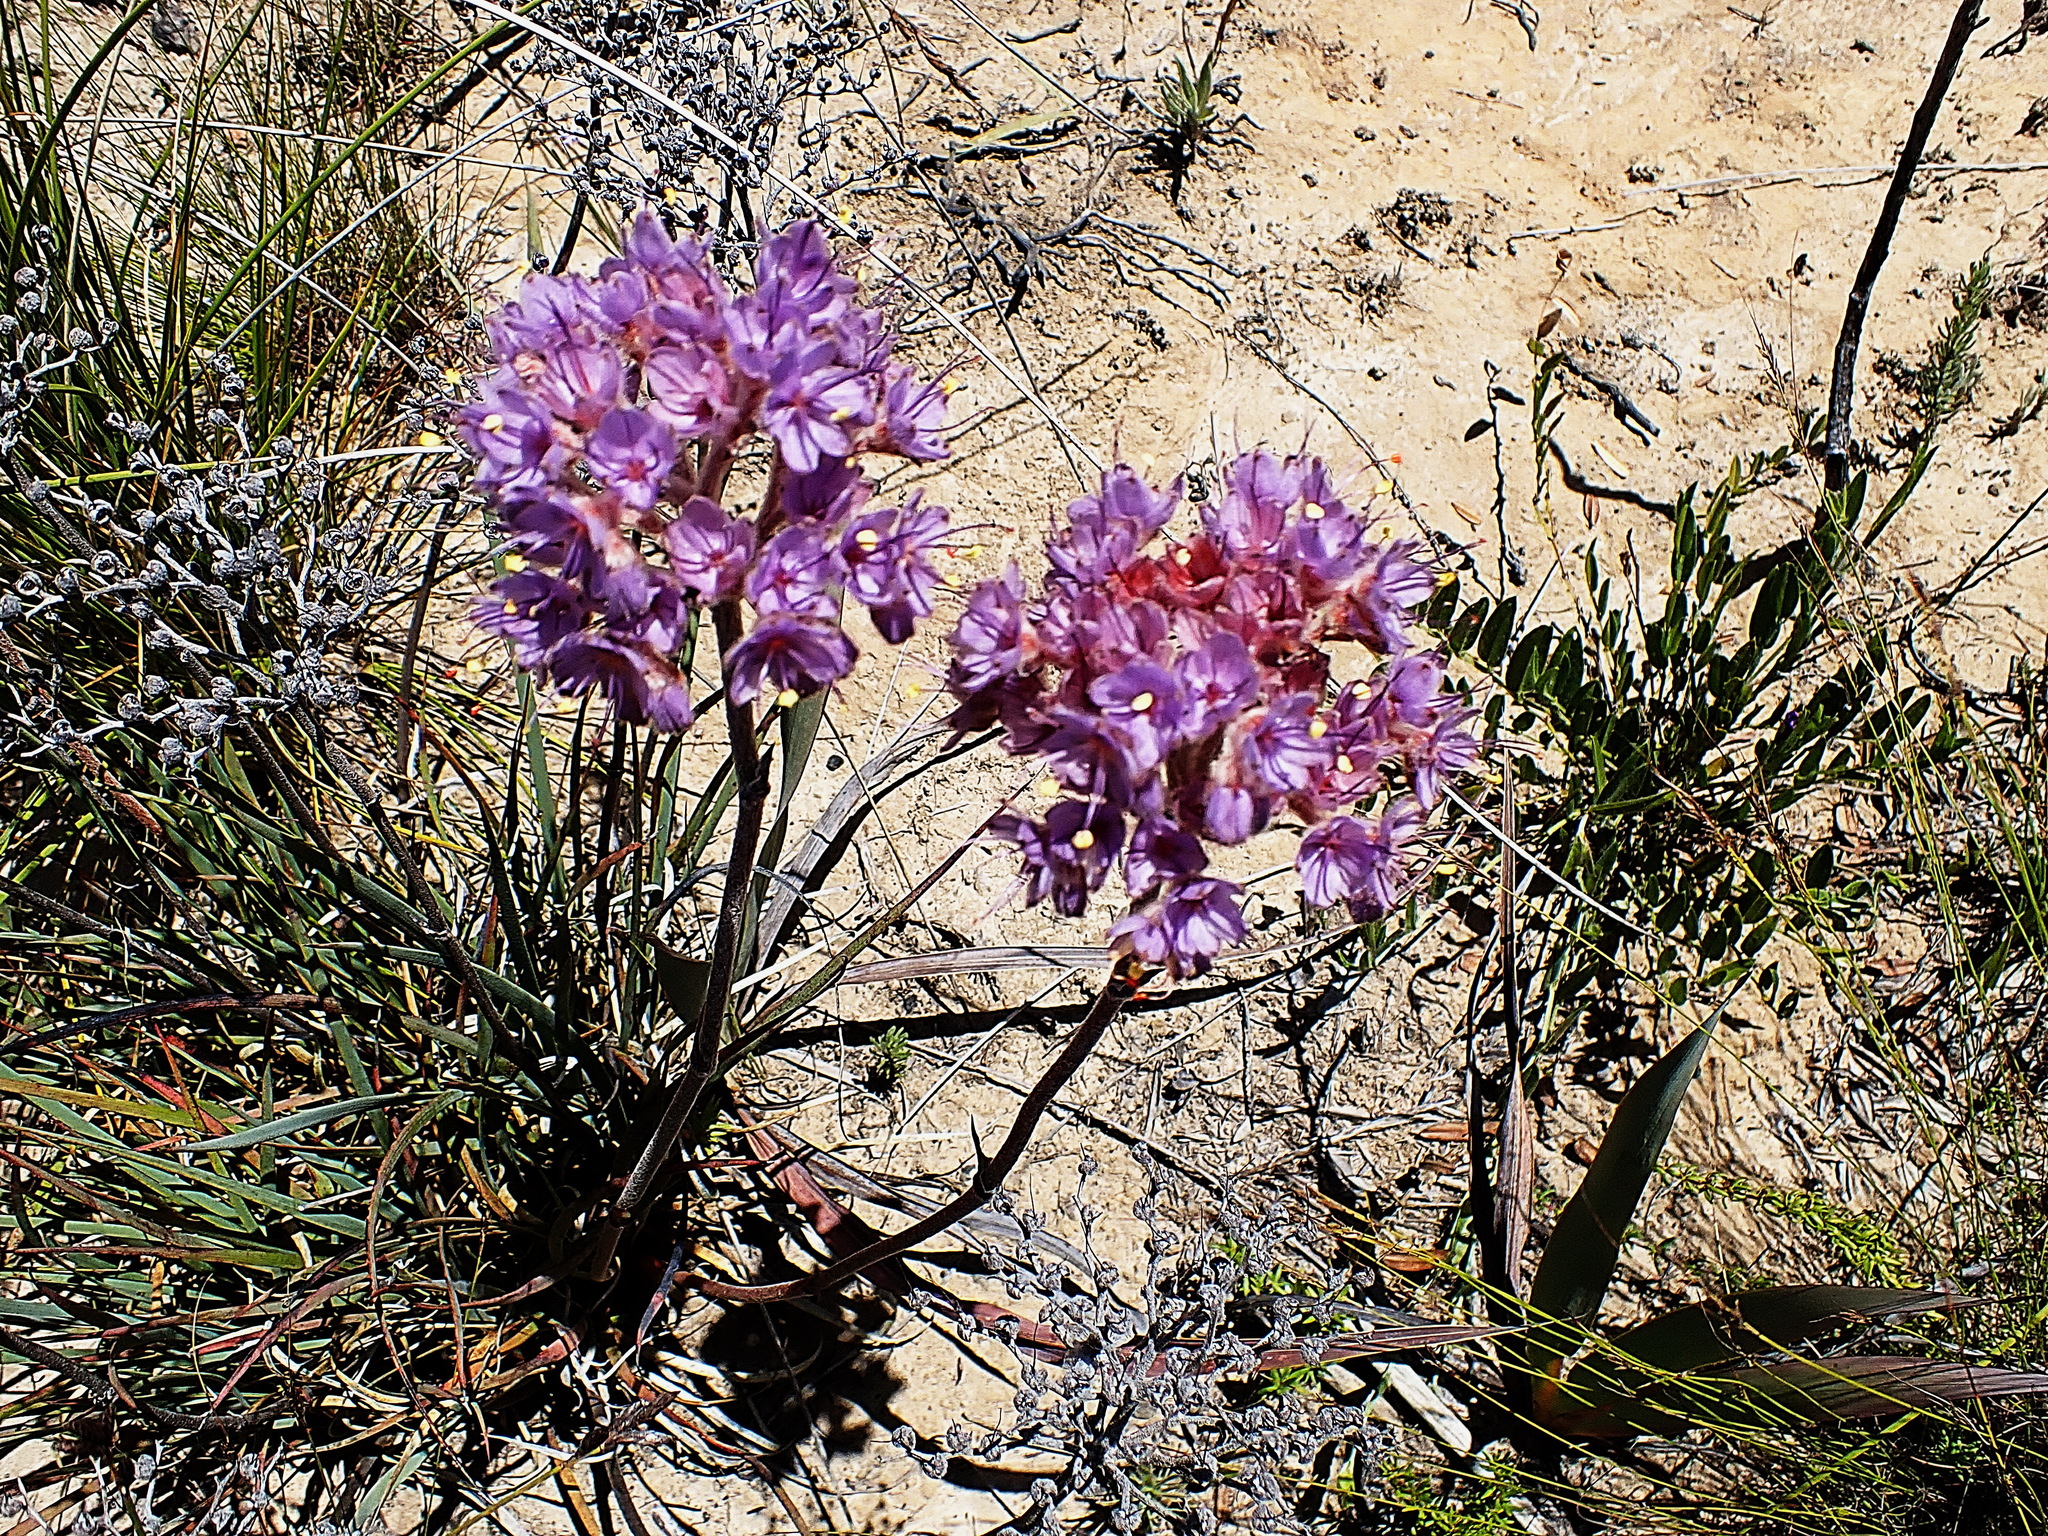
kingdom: Plantae
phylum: Tracheophyta
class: Liliopsida
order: Commelinales
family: Haemodoraceae
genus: Dilatris
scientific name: Dilatris ixioides
